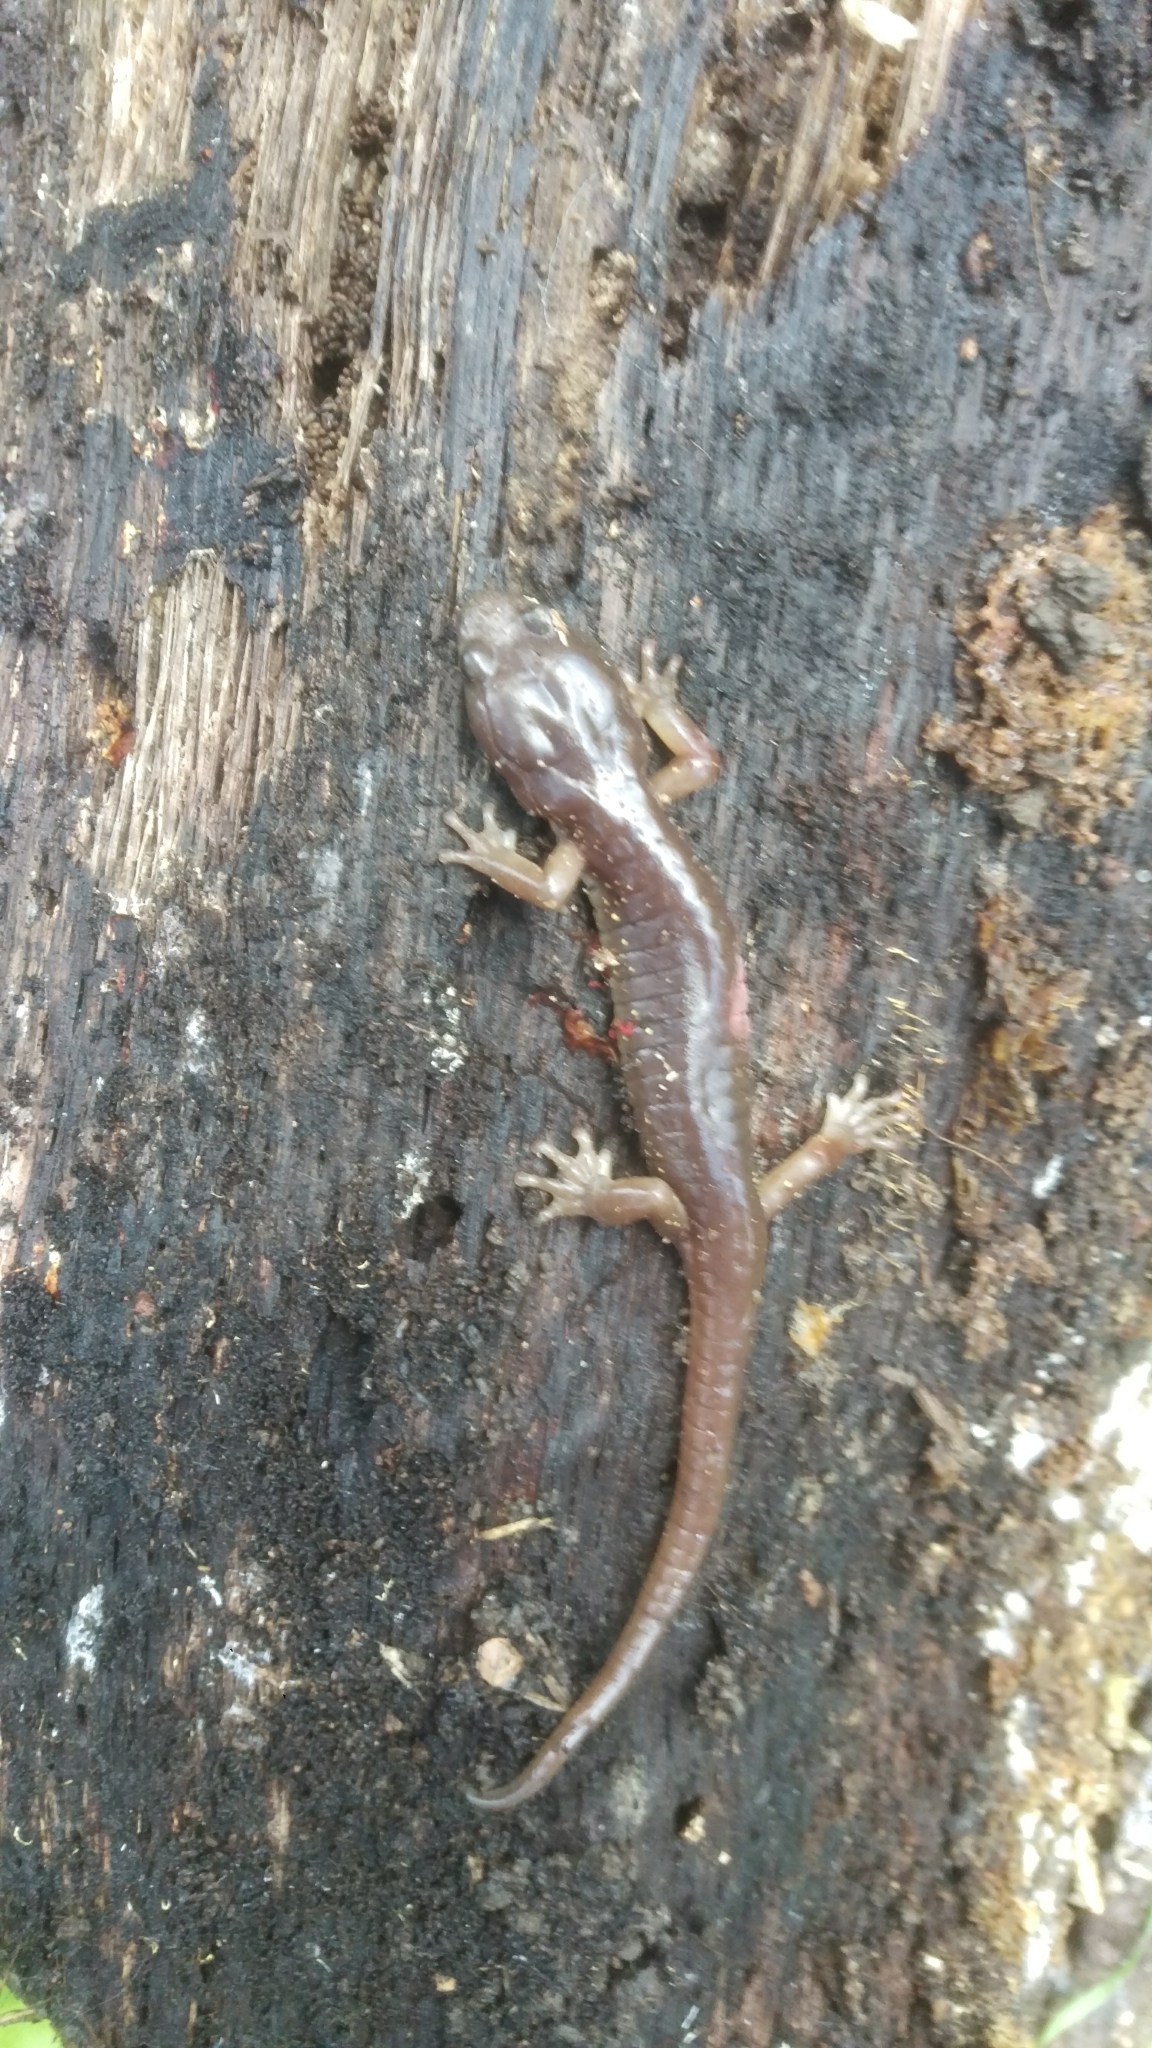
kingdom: Animalia
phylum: Chordata
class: Amphibia
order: Caudata
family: Plethodontidae
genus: Aneides
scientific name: Aneides lugubris
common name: Arboreal salamander
